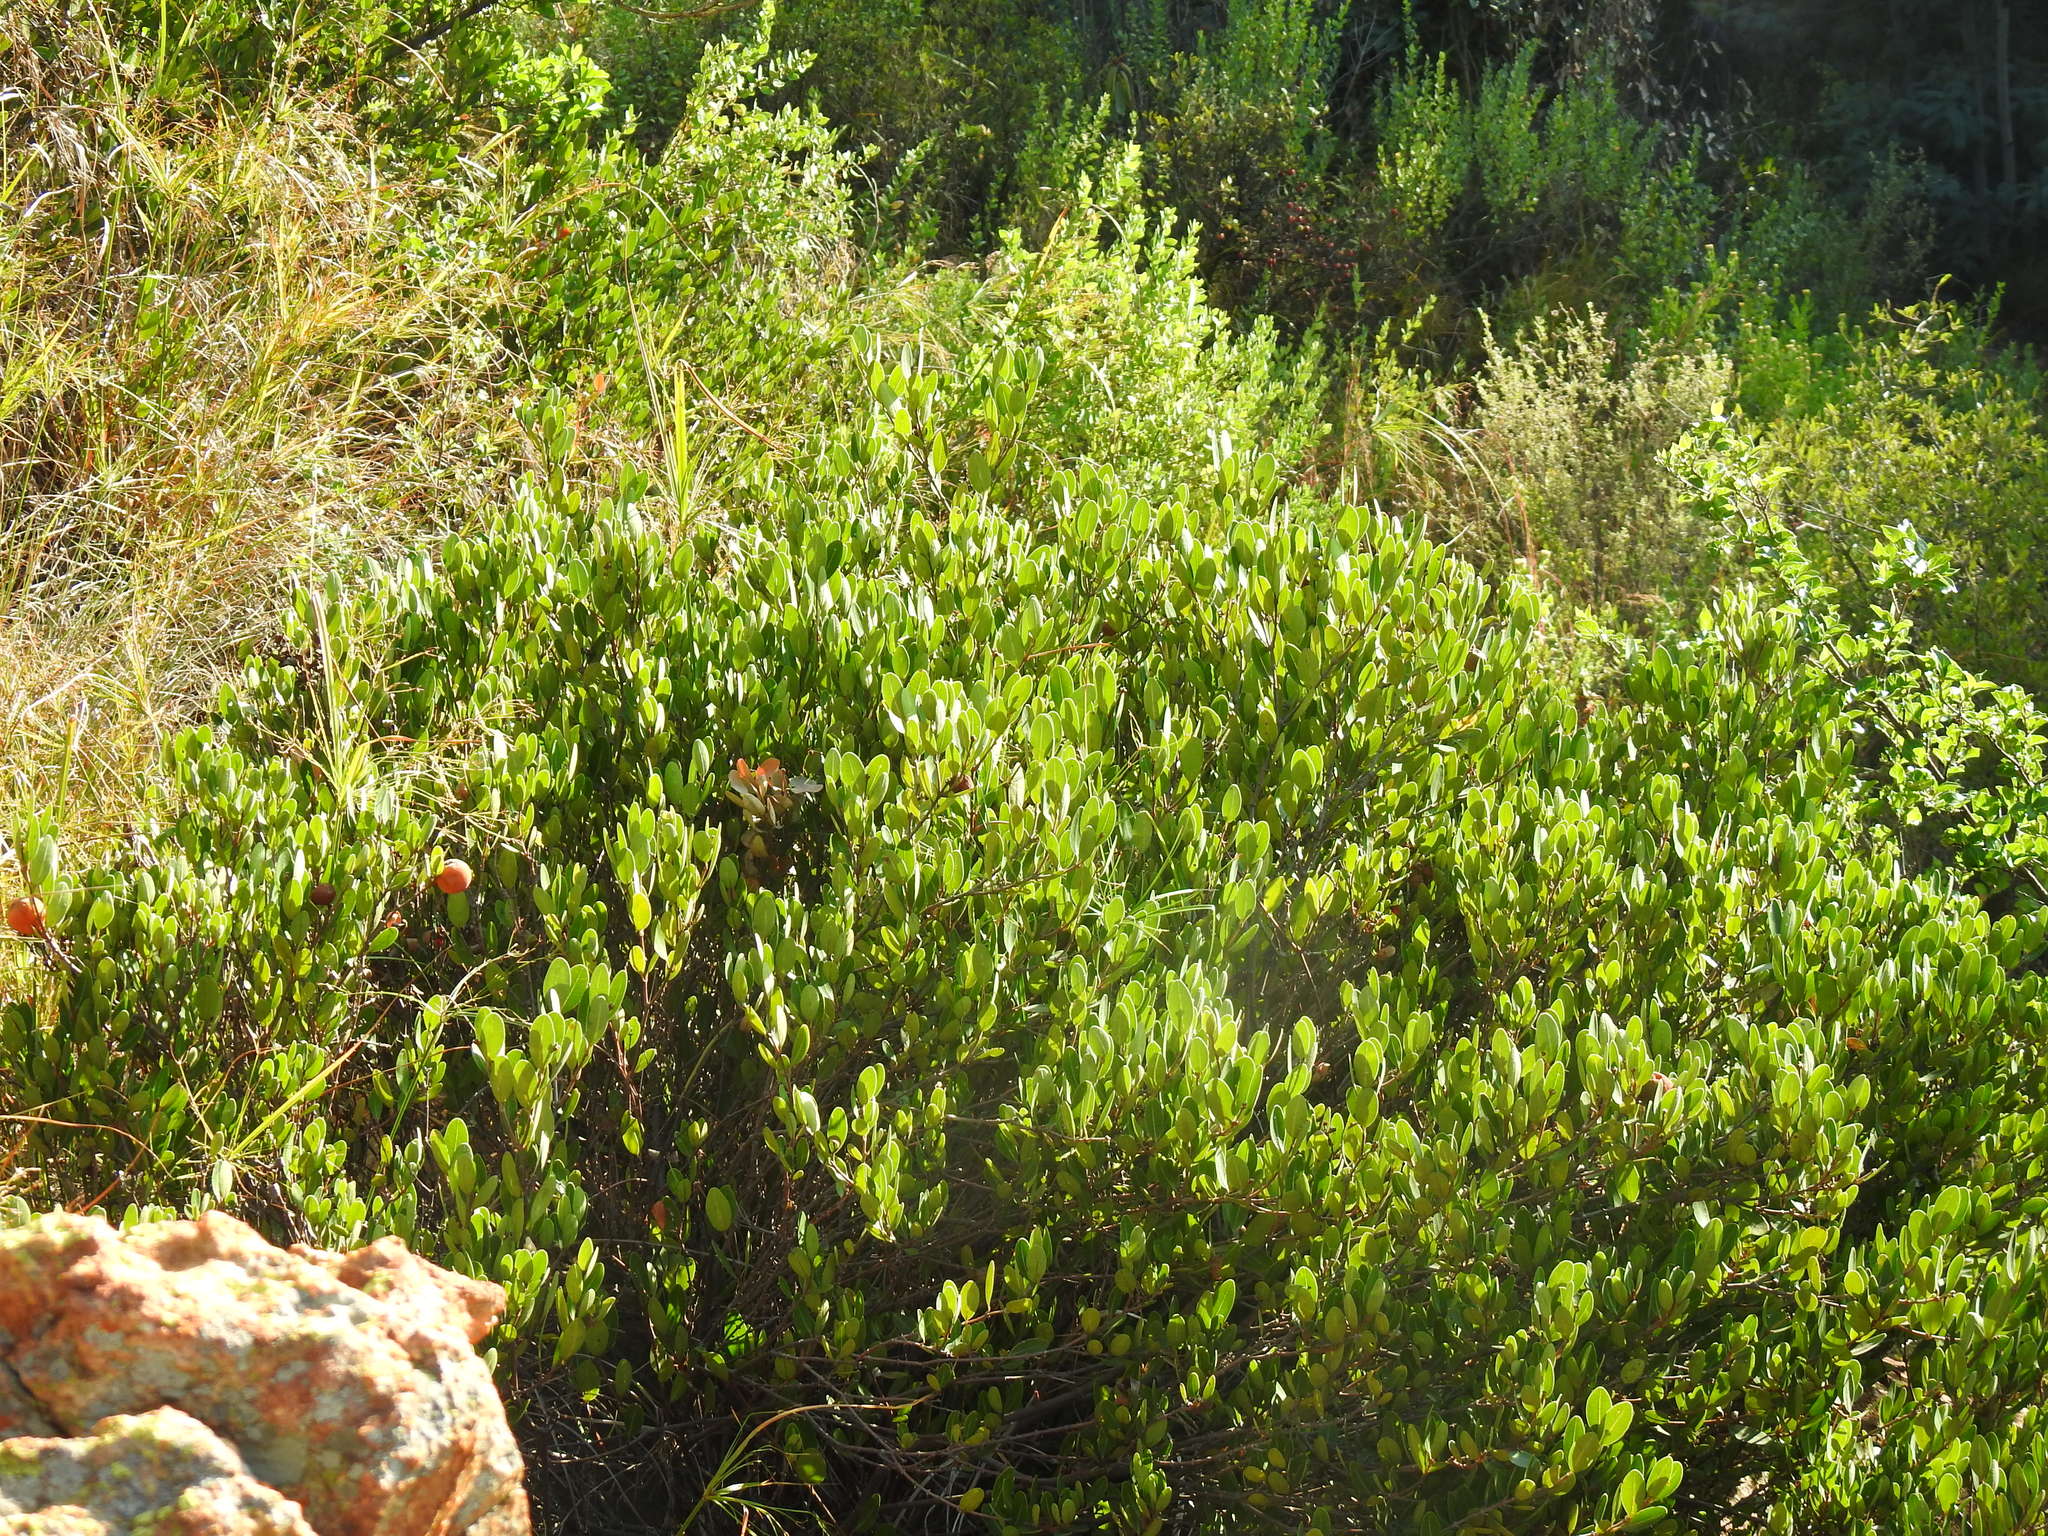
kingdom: Plantae
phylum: Tracheophyta
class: Magnoliopsida
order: Gentianales
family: Apocynaceae
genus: Ancylobothrys
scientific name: Ancylobothrys capensis
